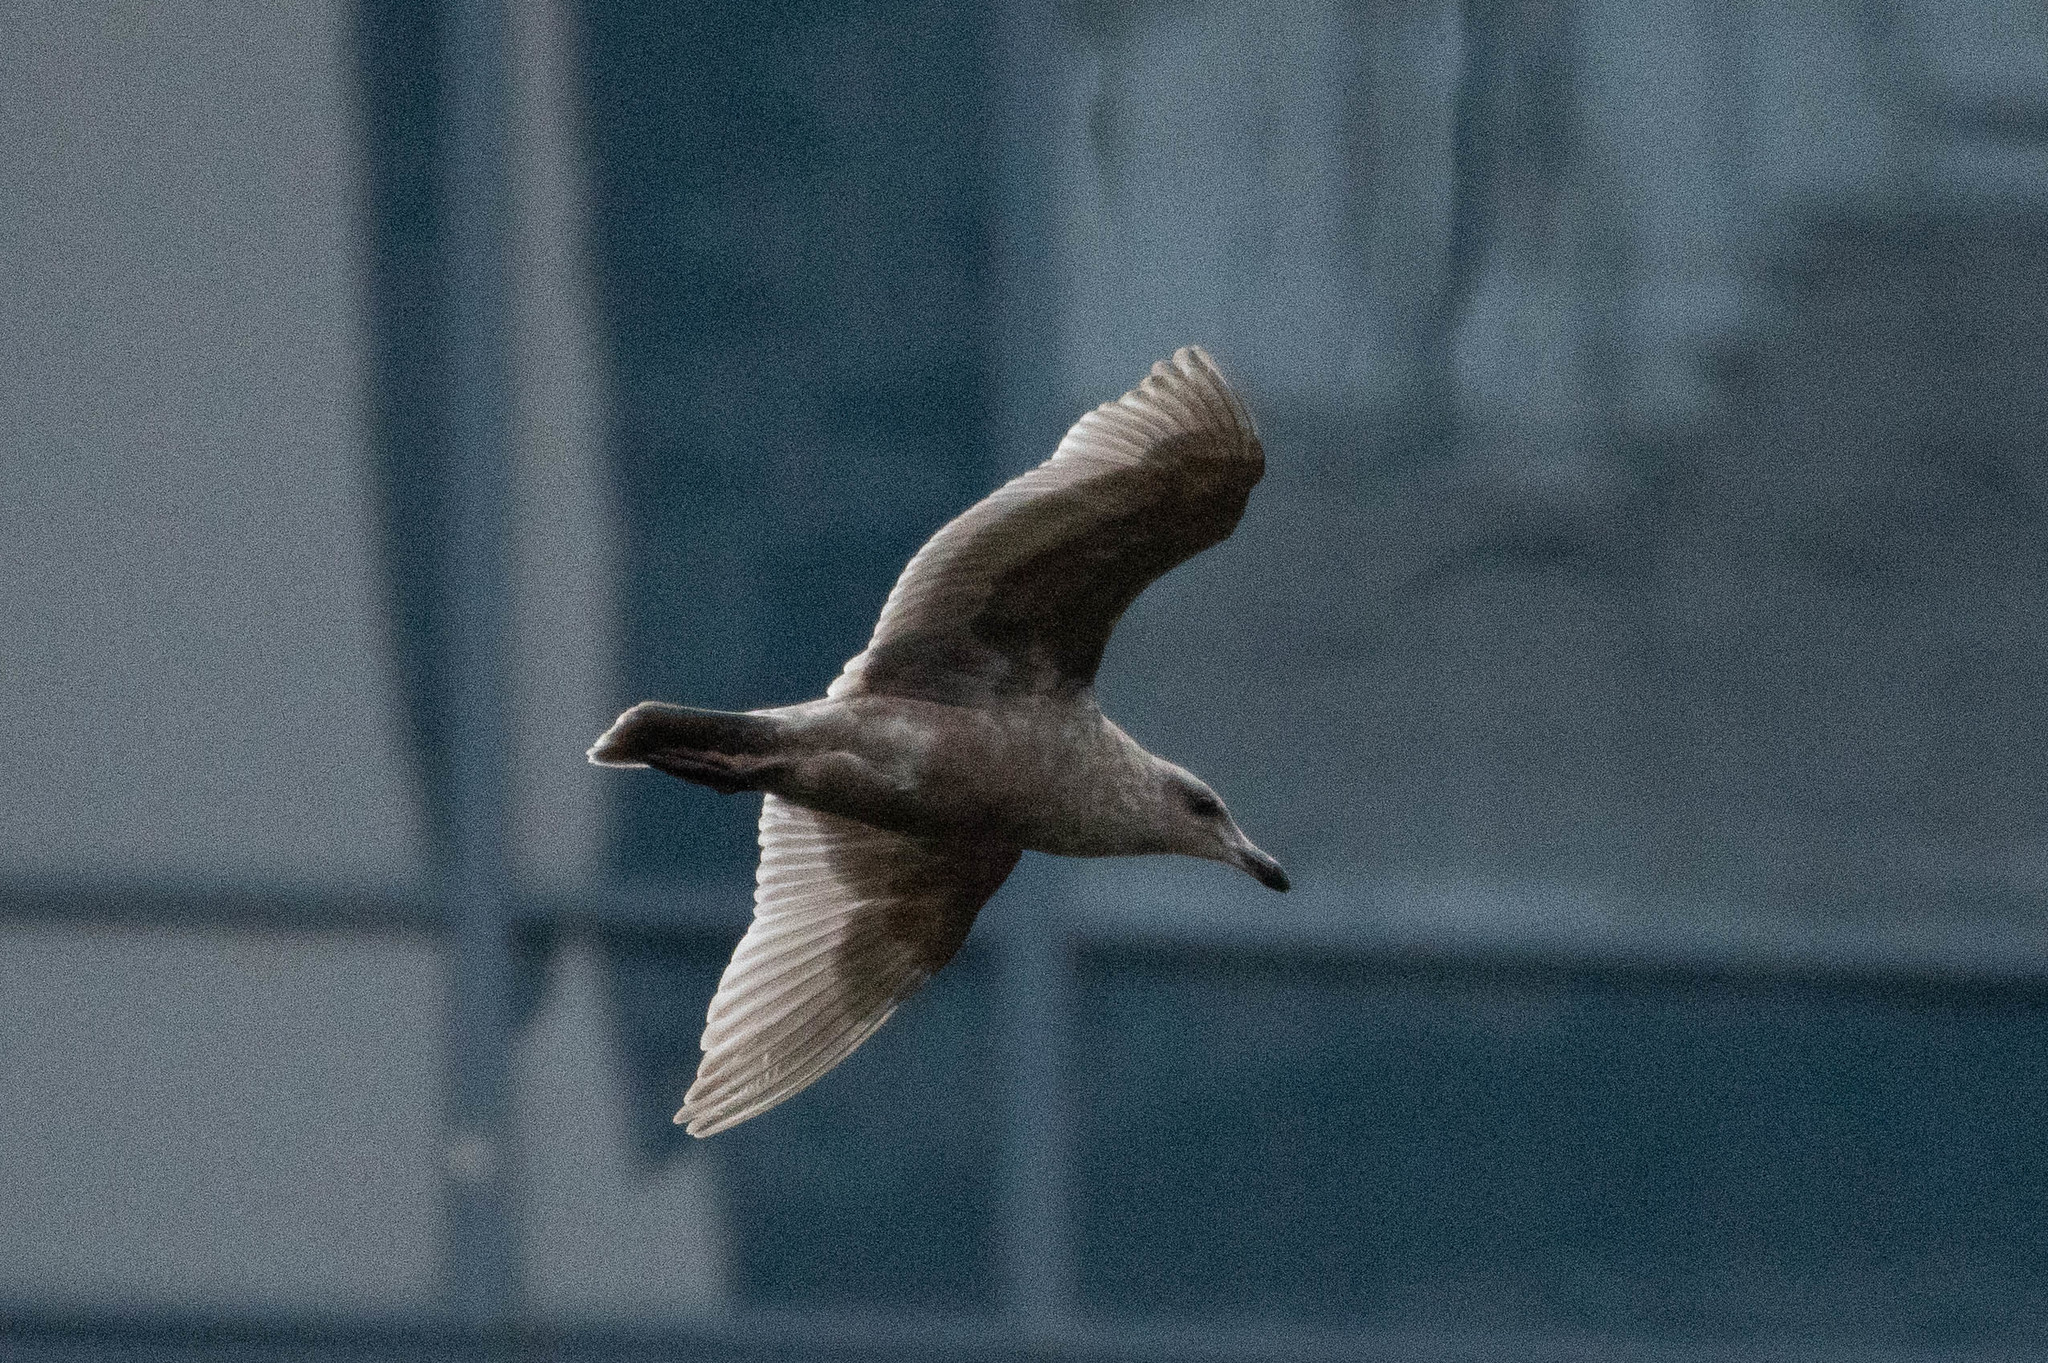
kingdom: Animalia
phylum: Chordata
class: Aves
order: Charadriiformes
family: Laridae
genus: Larus
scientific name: Larus glaucescens
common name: Glaucous-winged gull
